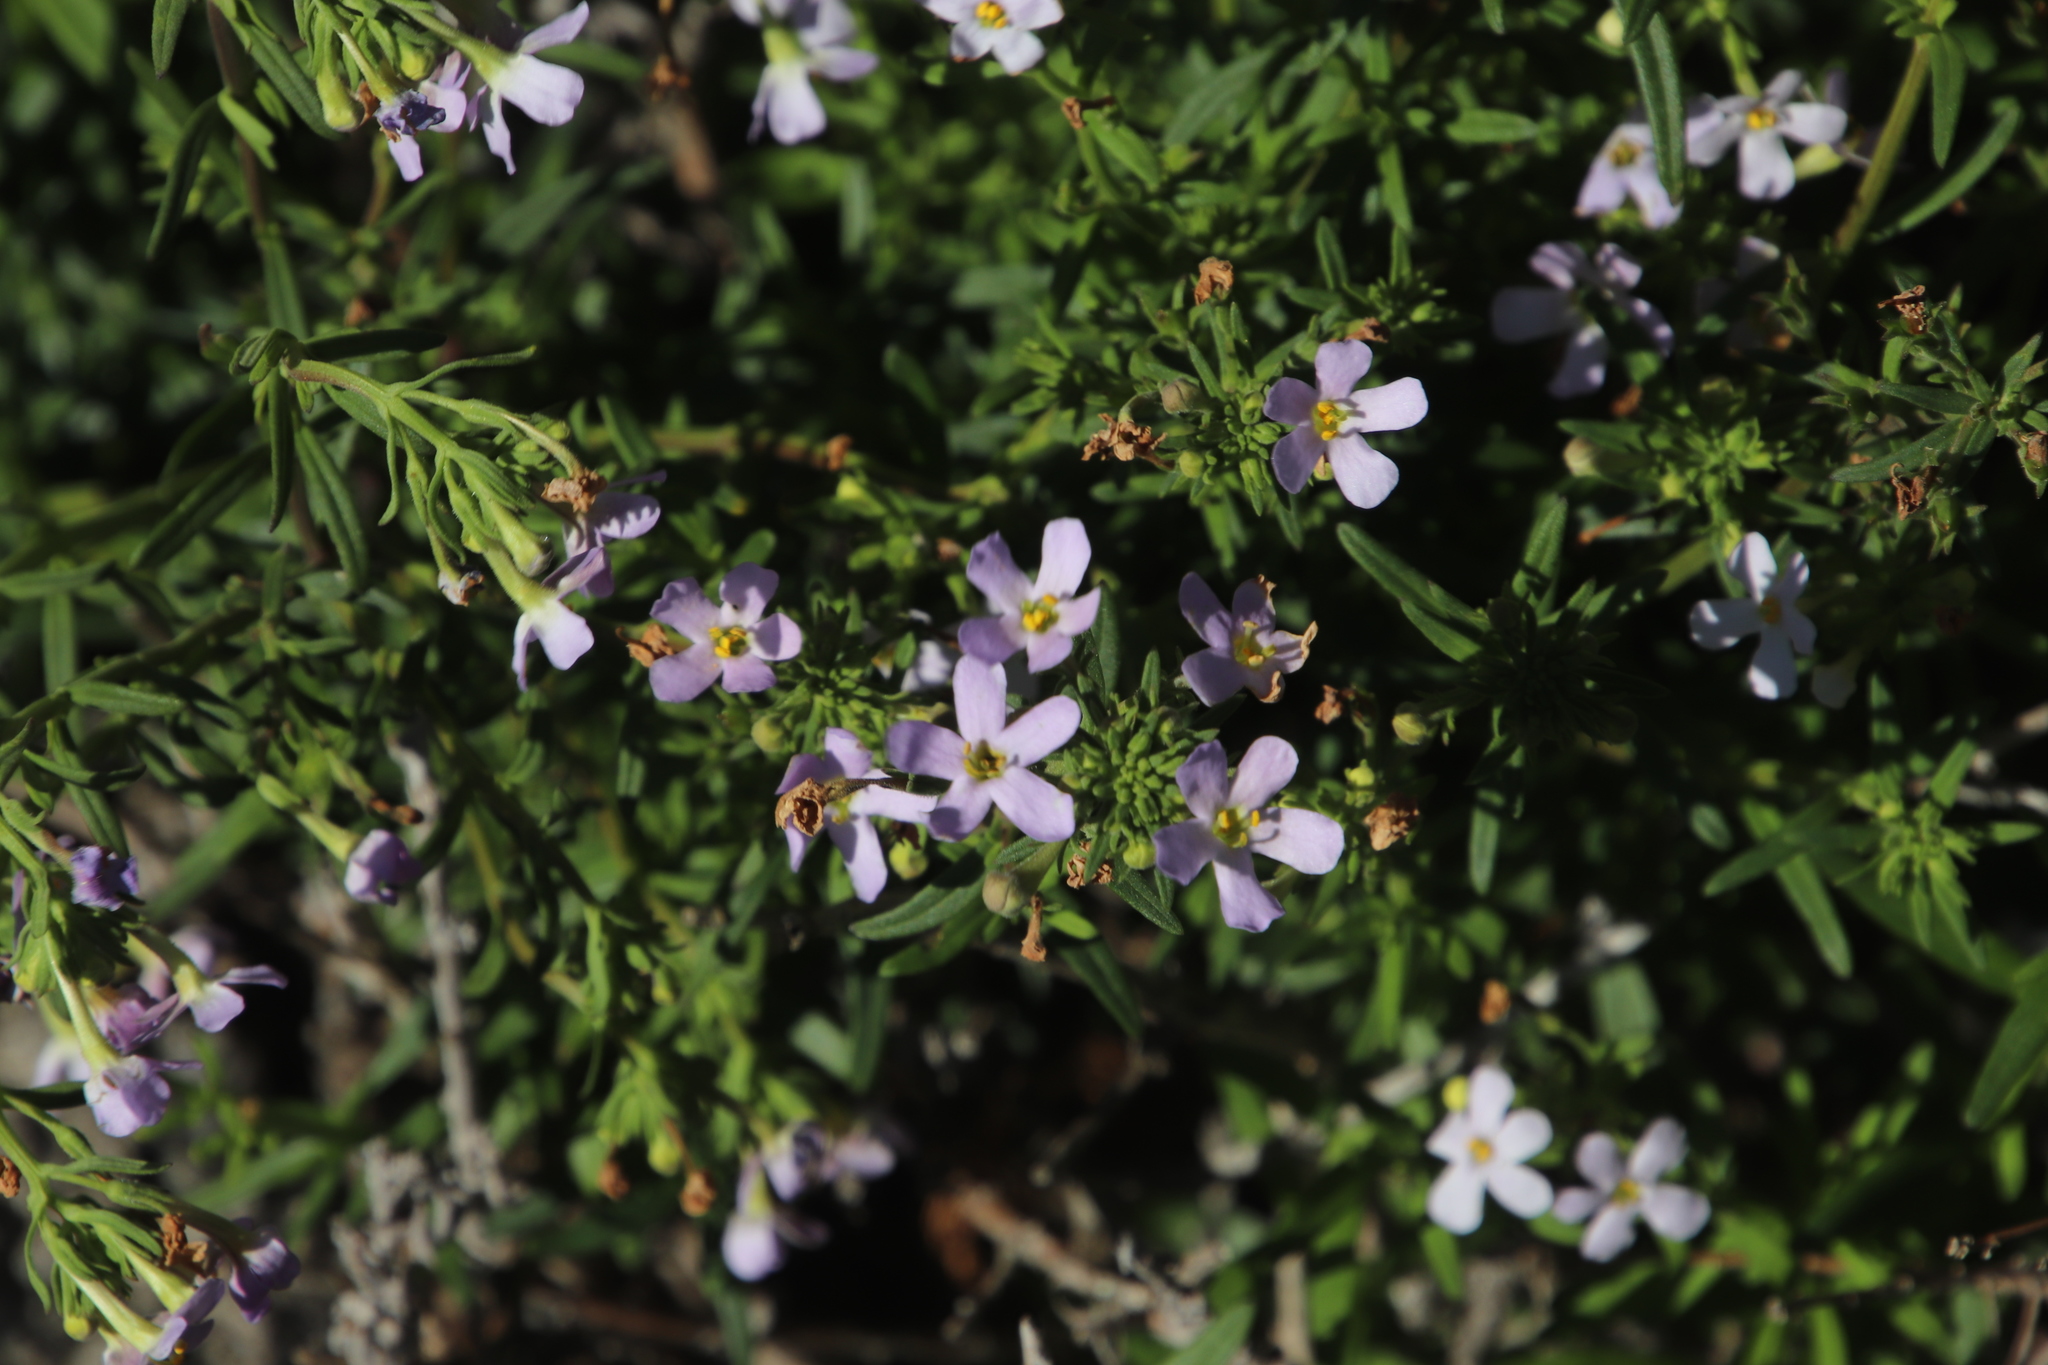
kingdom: Plantae
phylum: Tracheophyta
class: Magnoliopsida
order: Lamiales
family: Scrophulariaceae
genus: Chaenostoma
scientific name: Chaenostoma uncinatum
